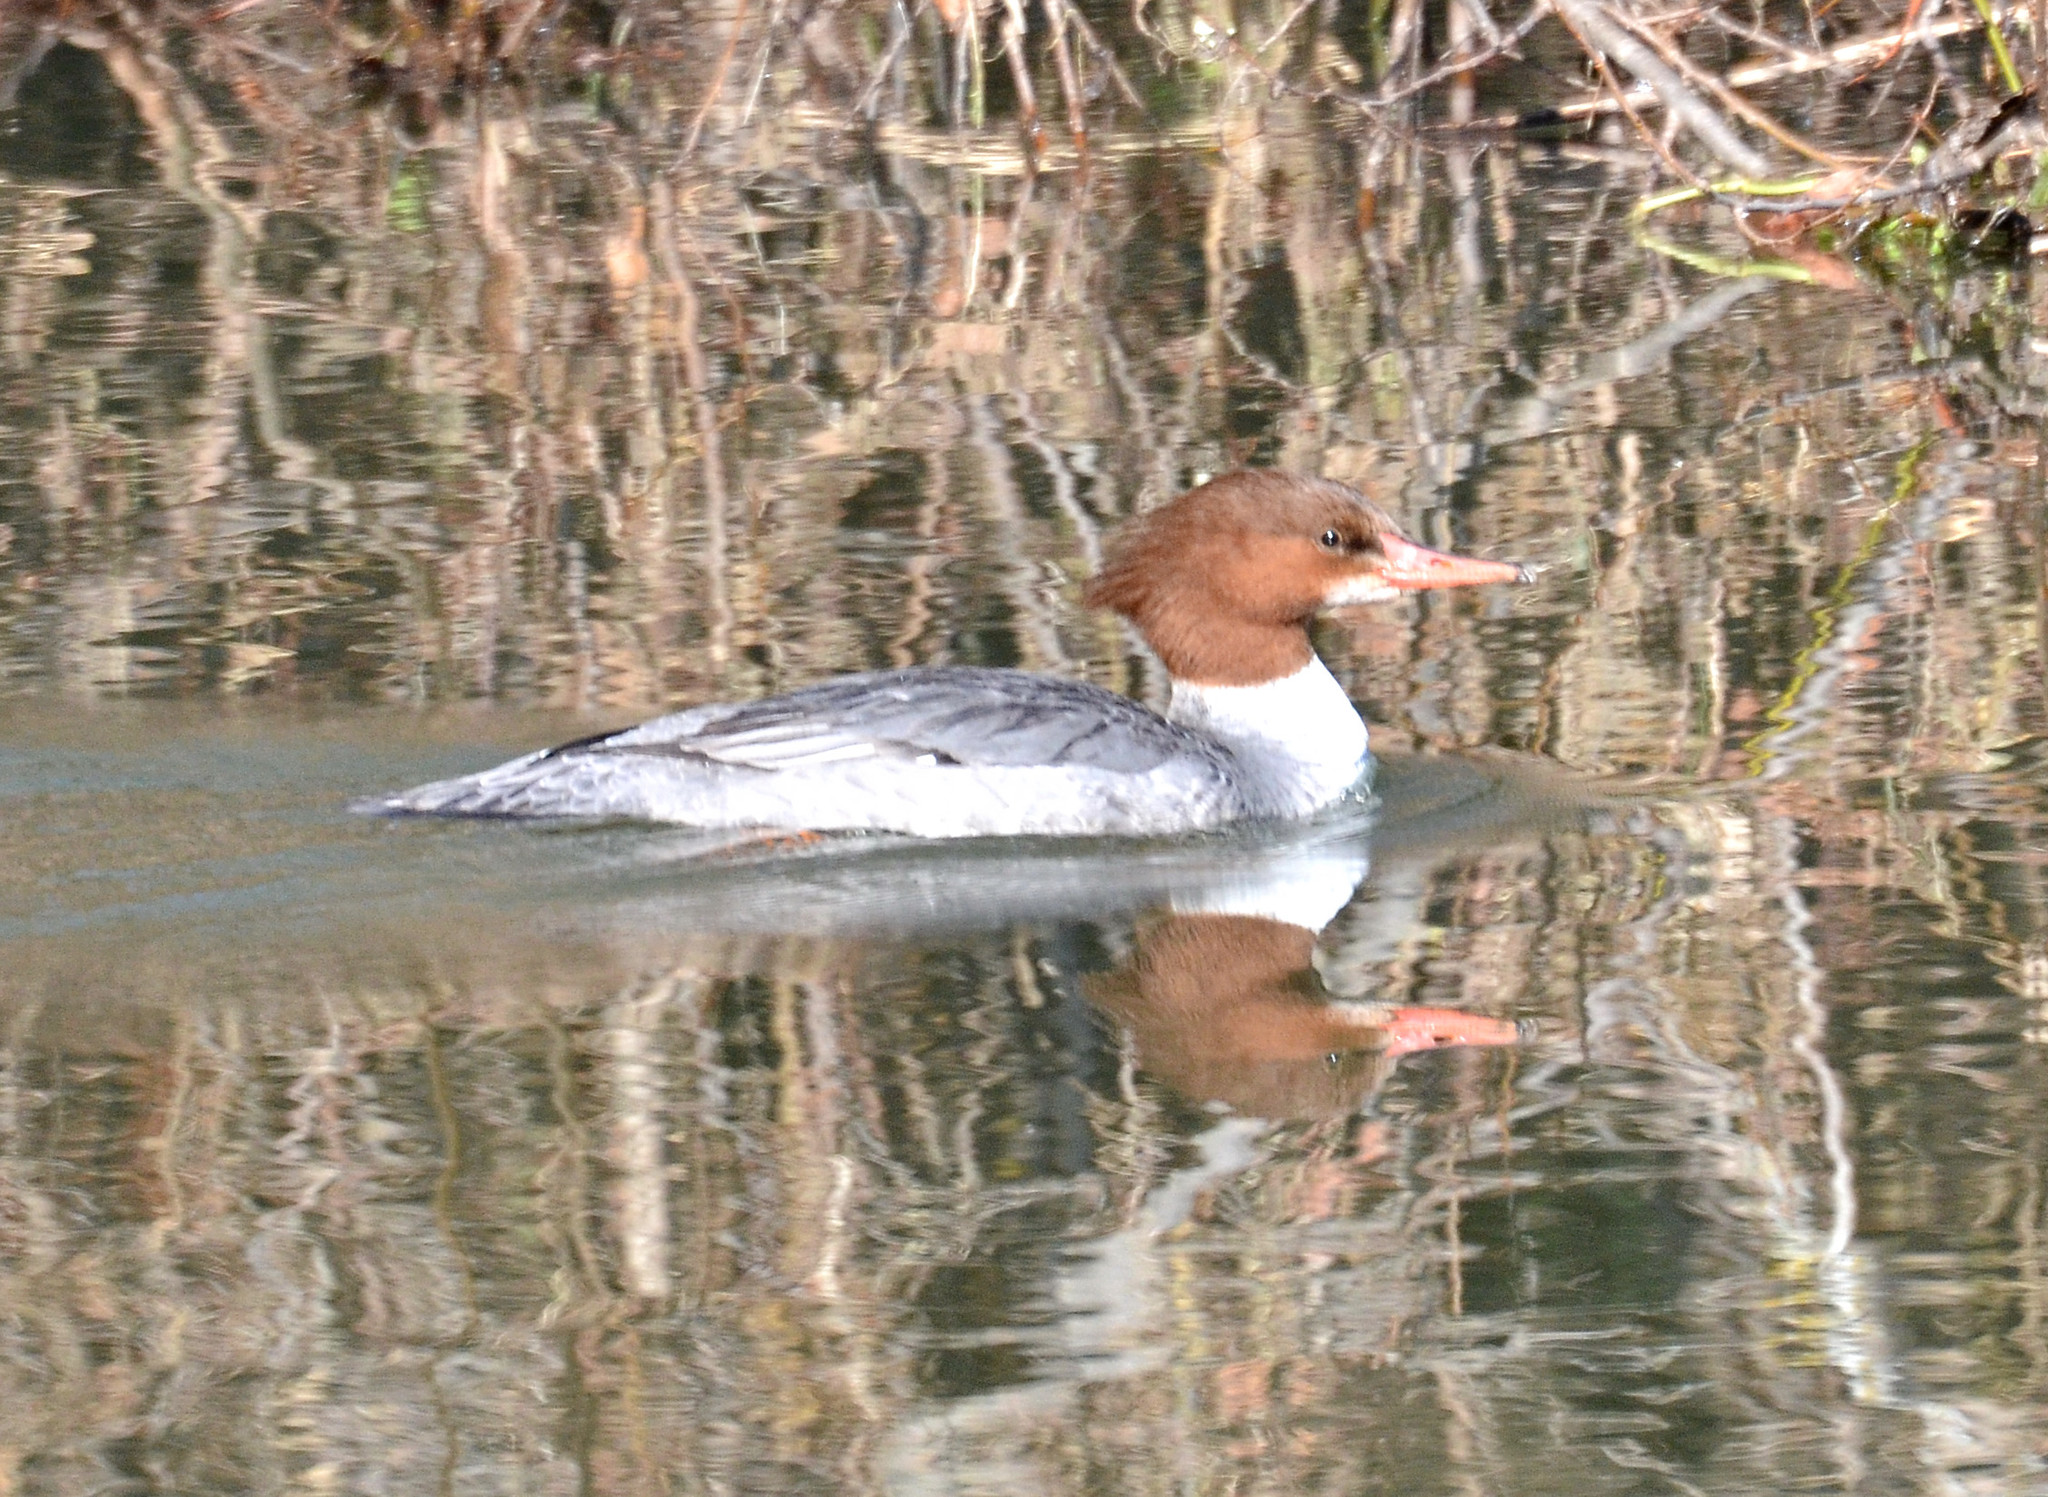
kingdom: Animalia
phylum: Chordata
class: Aves
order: Anseriformes
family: Anatidae
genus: Mergus
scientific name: Mergus merganser
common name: Common merganser
